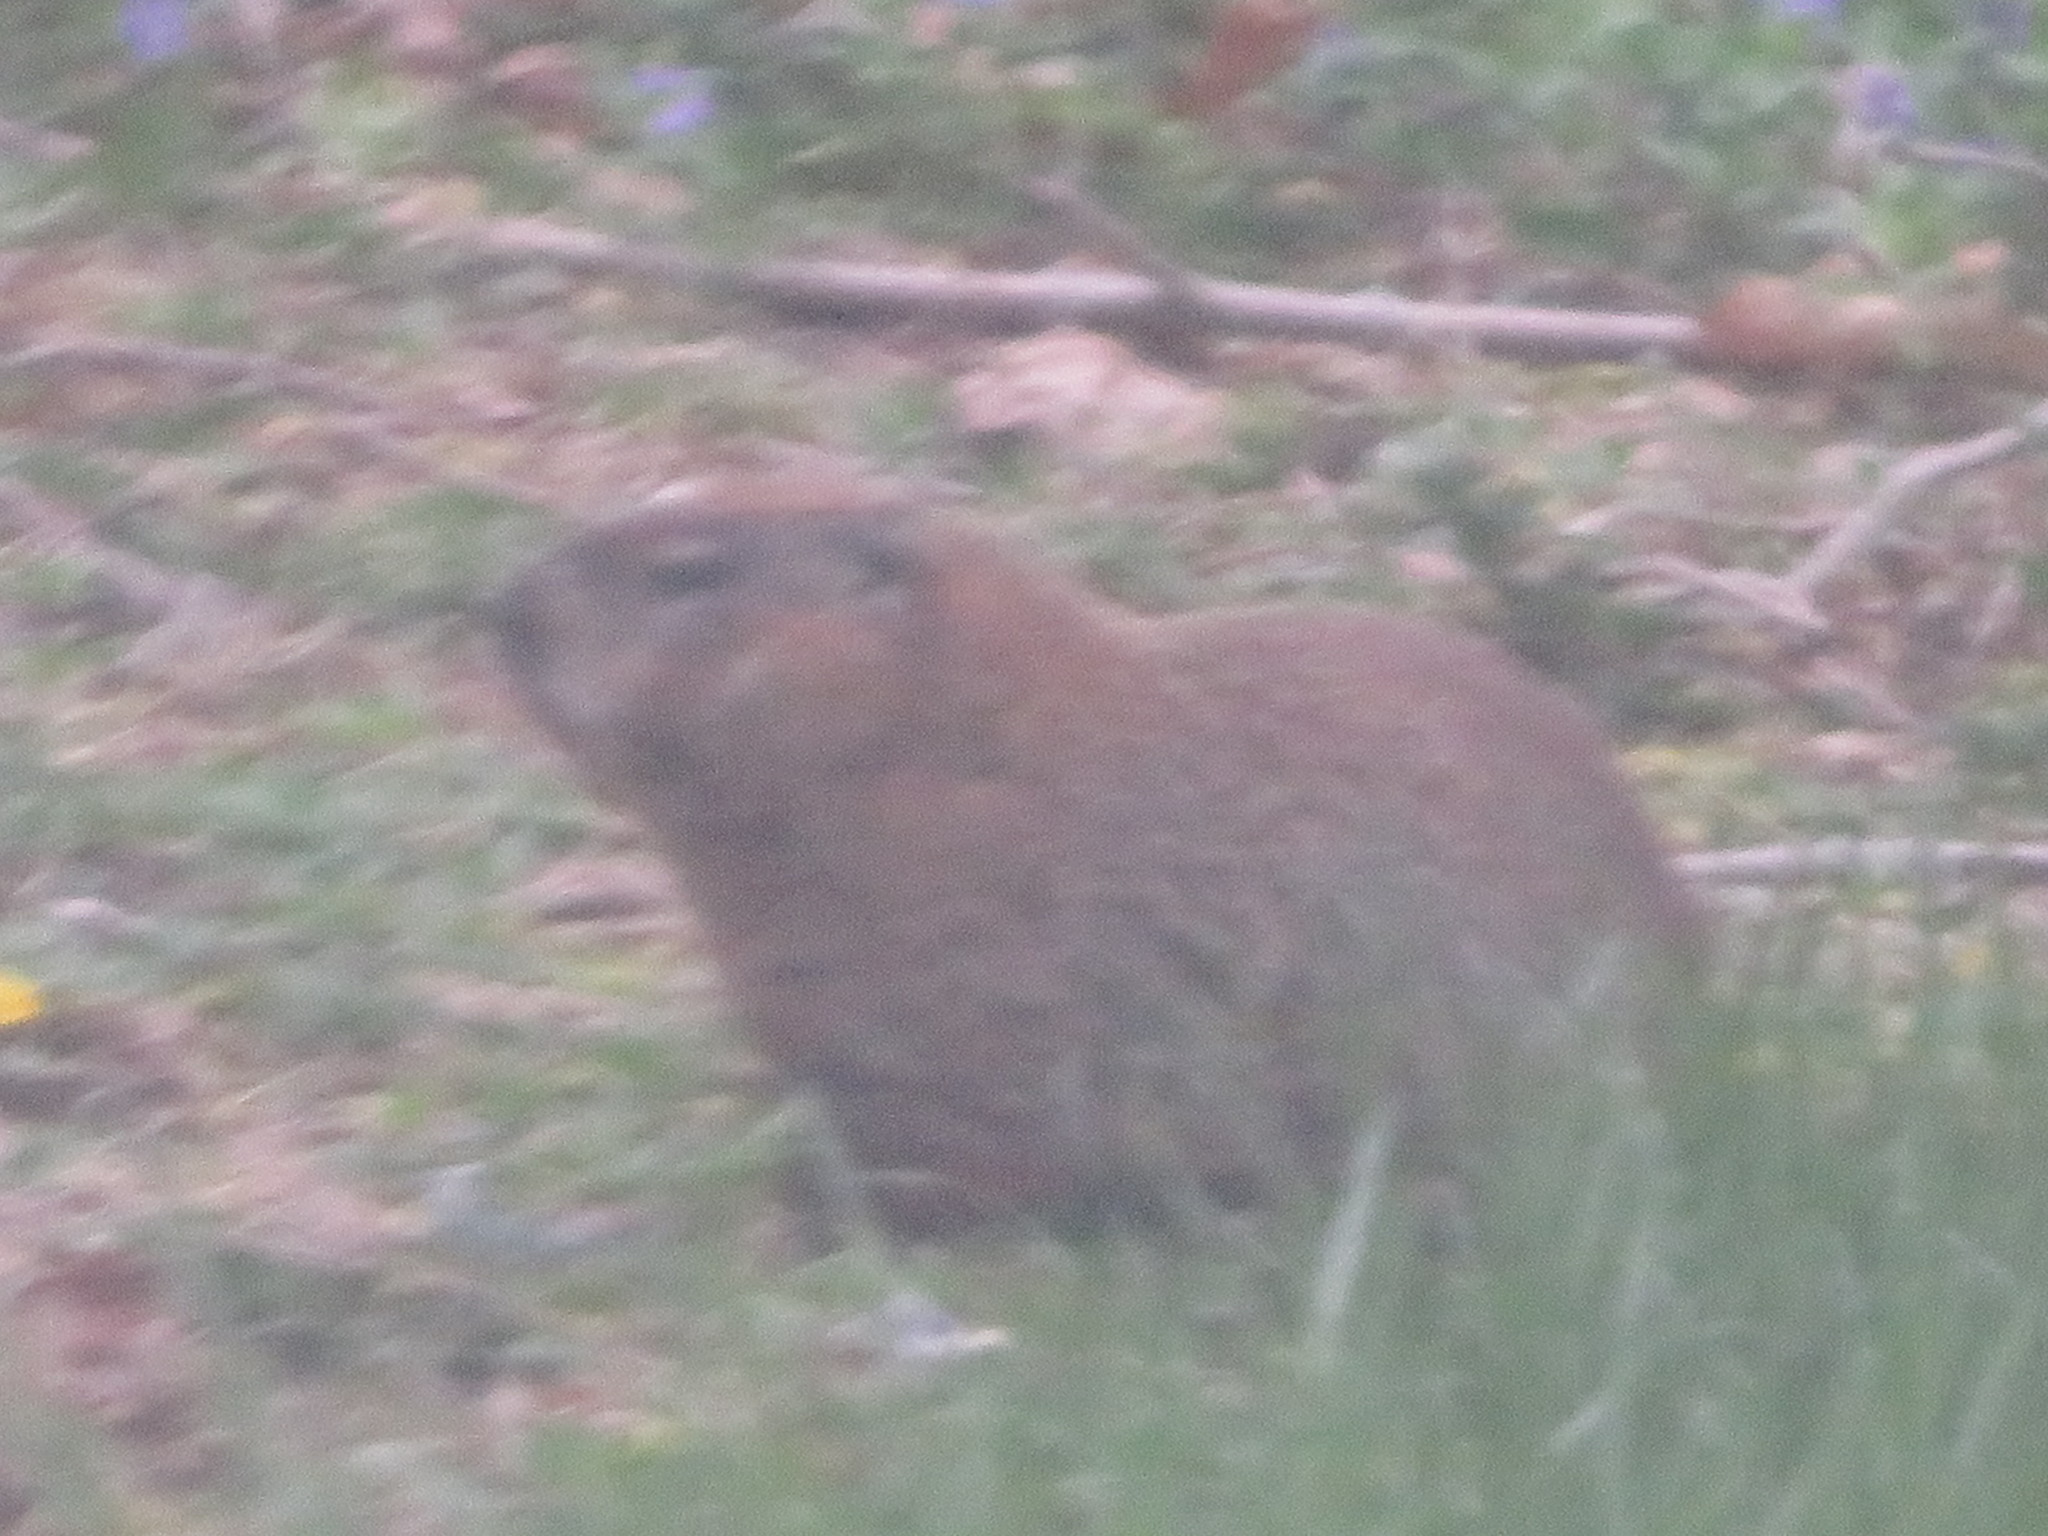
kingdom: Animalia
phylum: Chordata
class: Mammalia
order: Rodentia
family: Sciuridae
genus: Marmota
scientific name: Marmota monax
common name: Groundhog
